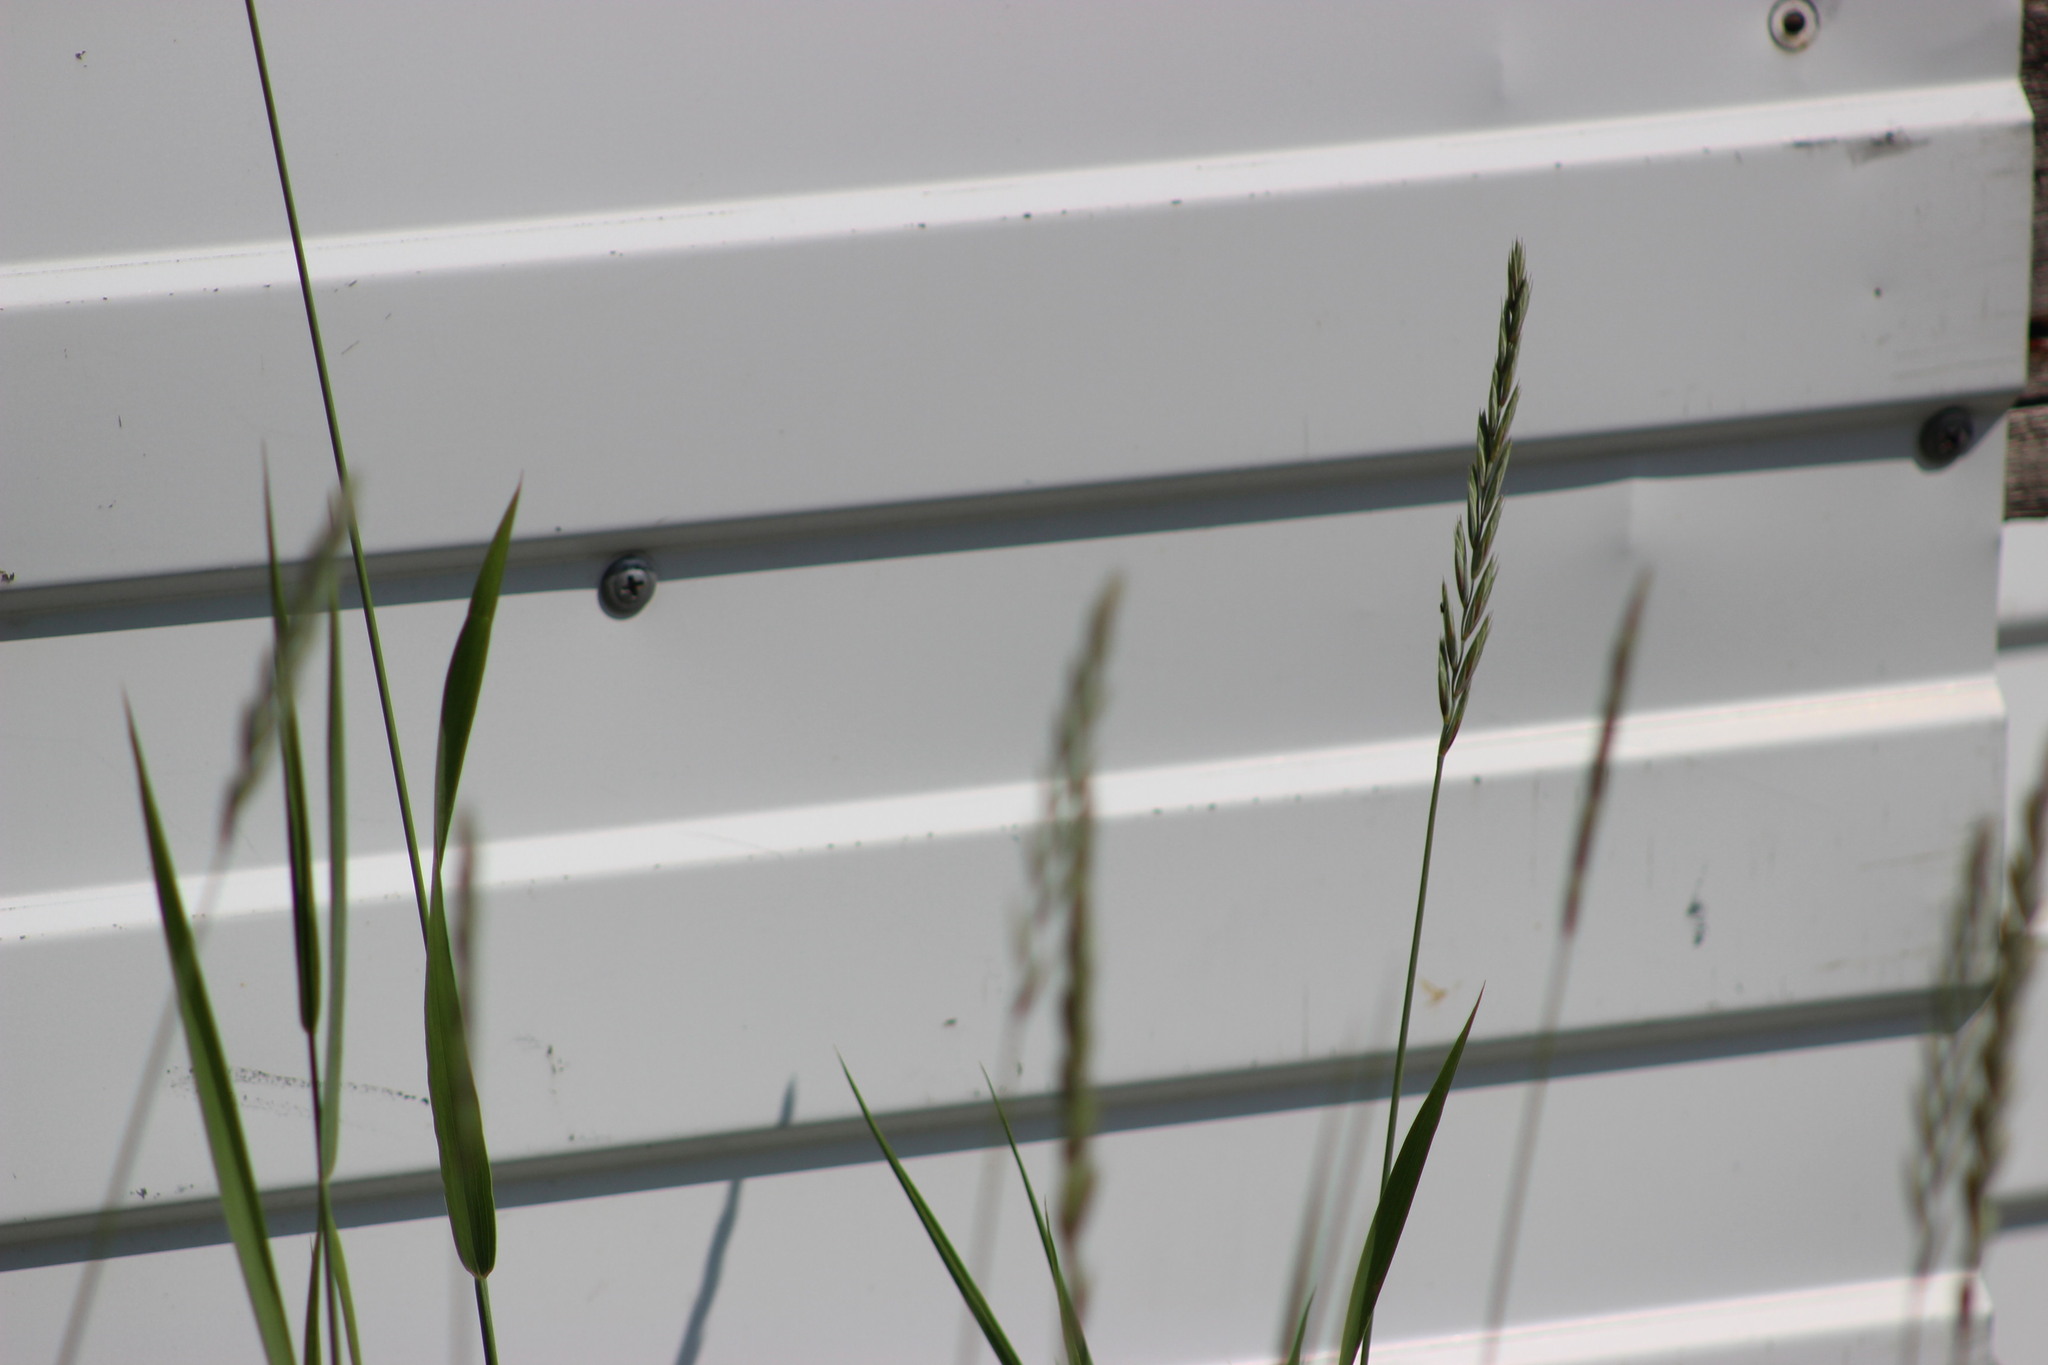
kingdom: Plantae
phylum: Tracheophyta
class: Liliopsida
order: Poales
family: Poaceae
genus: Elymus
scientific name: Elymus repens
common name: Quackgrass
